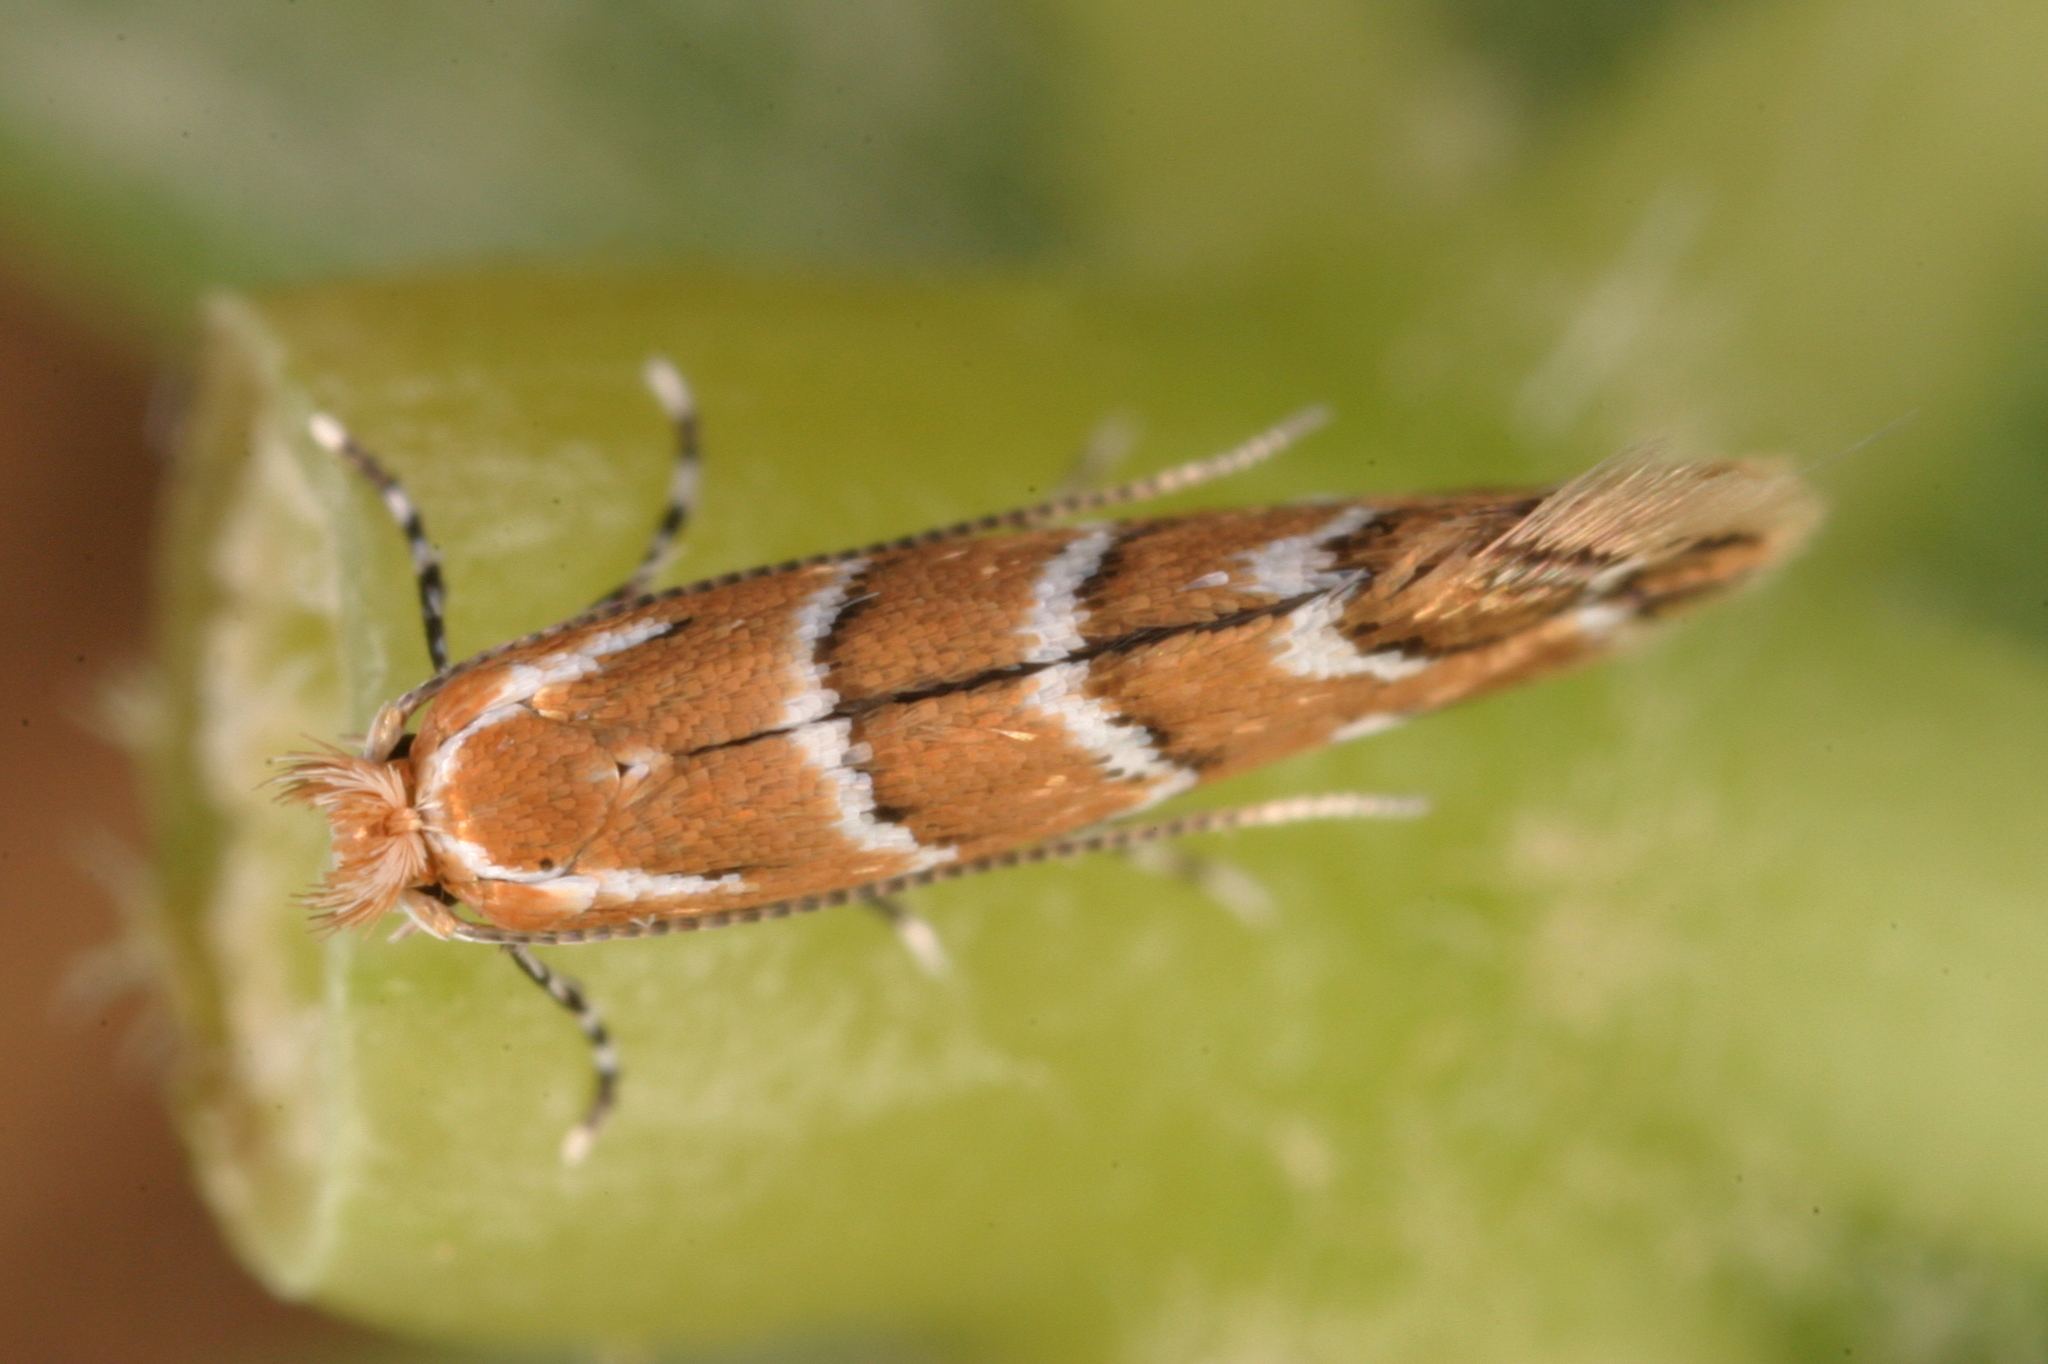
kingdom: Animalia
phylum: Arthropoda
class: Insecta
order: Lepidoptera
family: Gracillariidae
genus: Cameraria
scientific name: Cameraria ohridella
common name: Horse-chestnut leaf-miner
